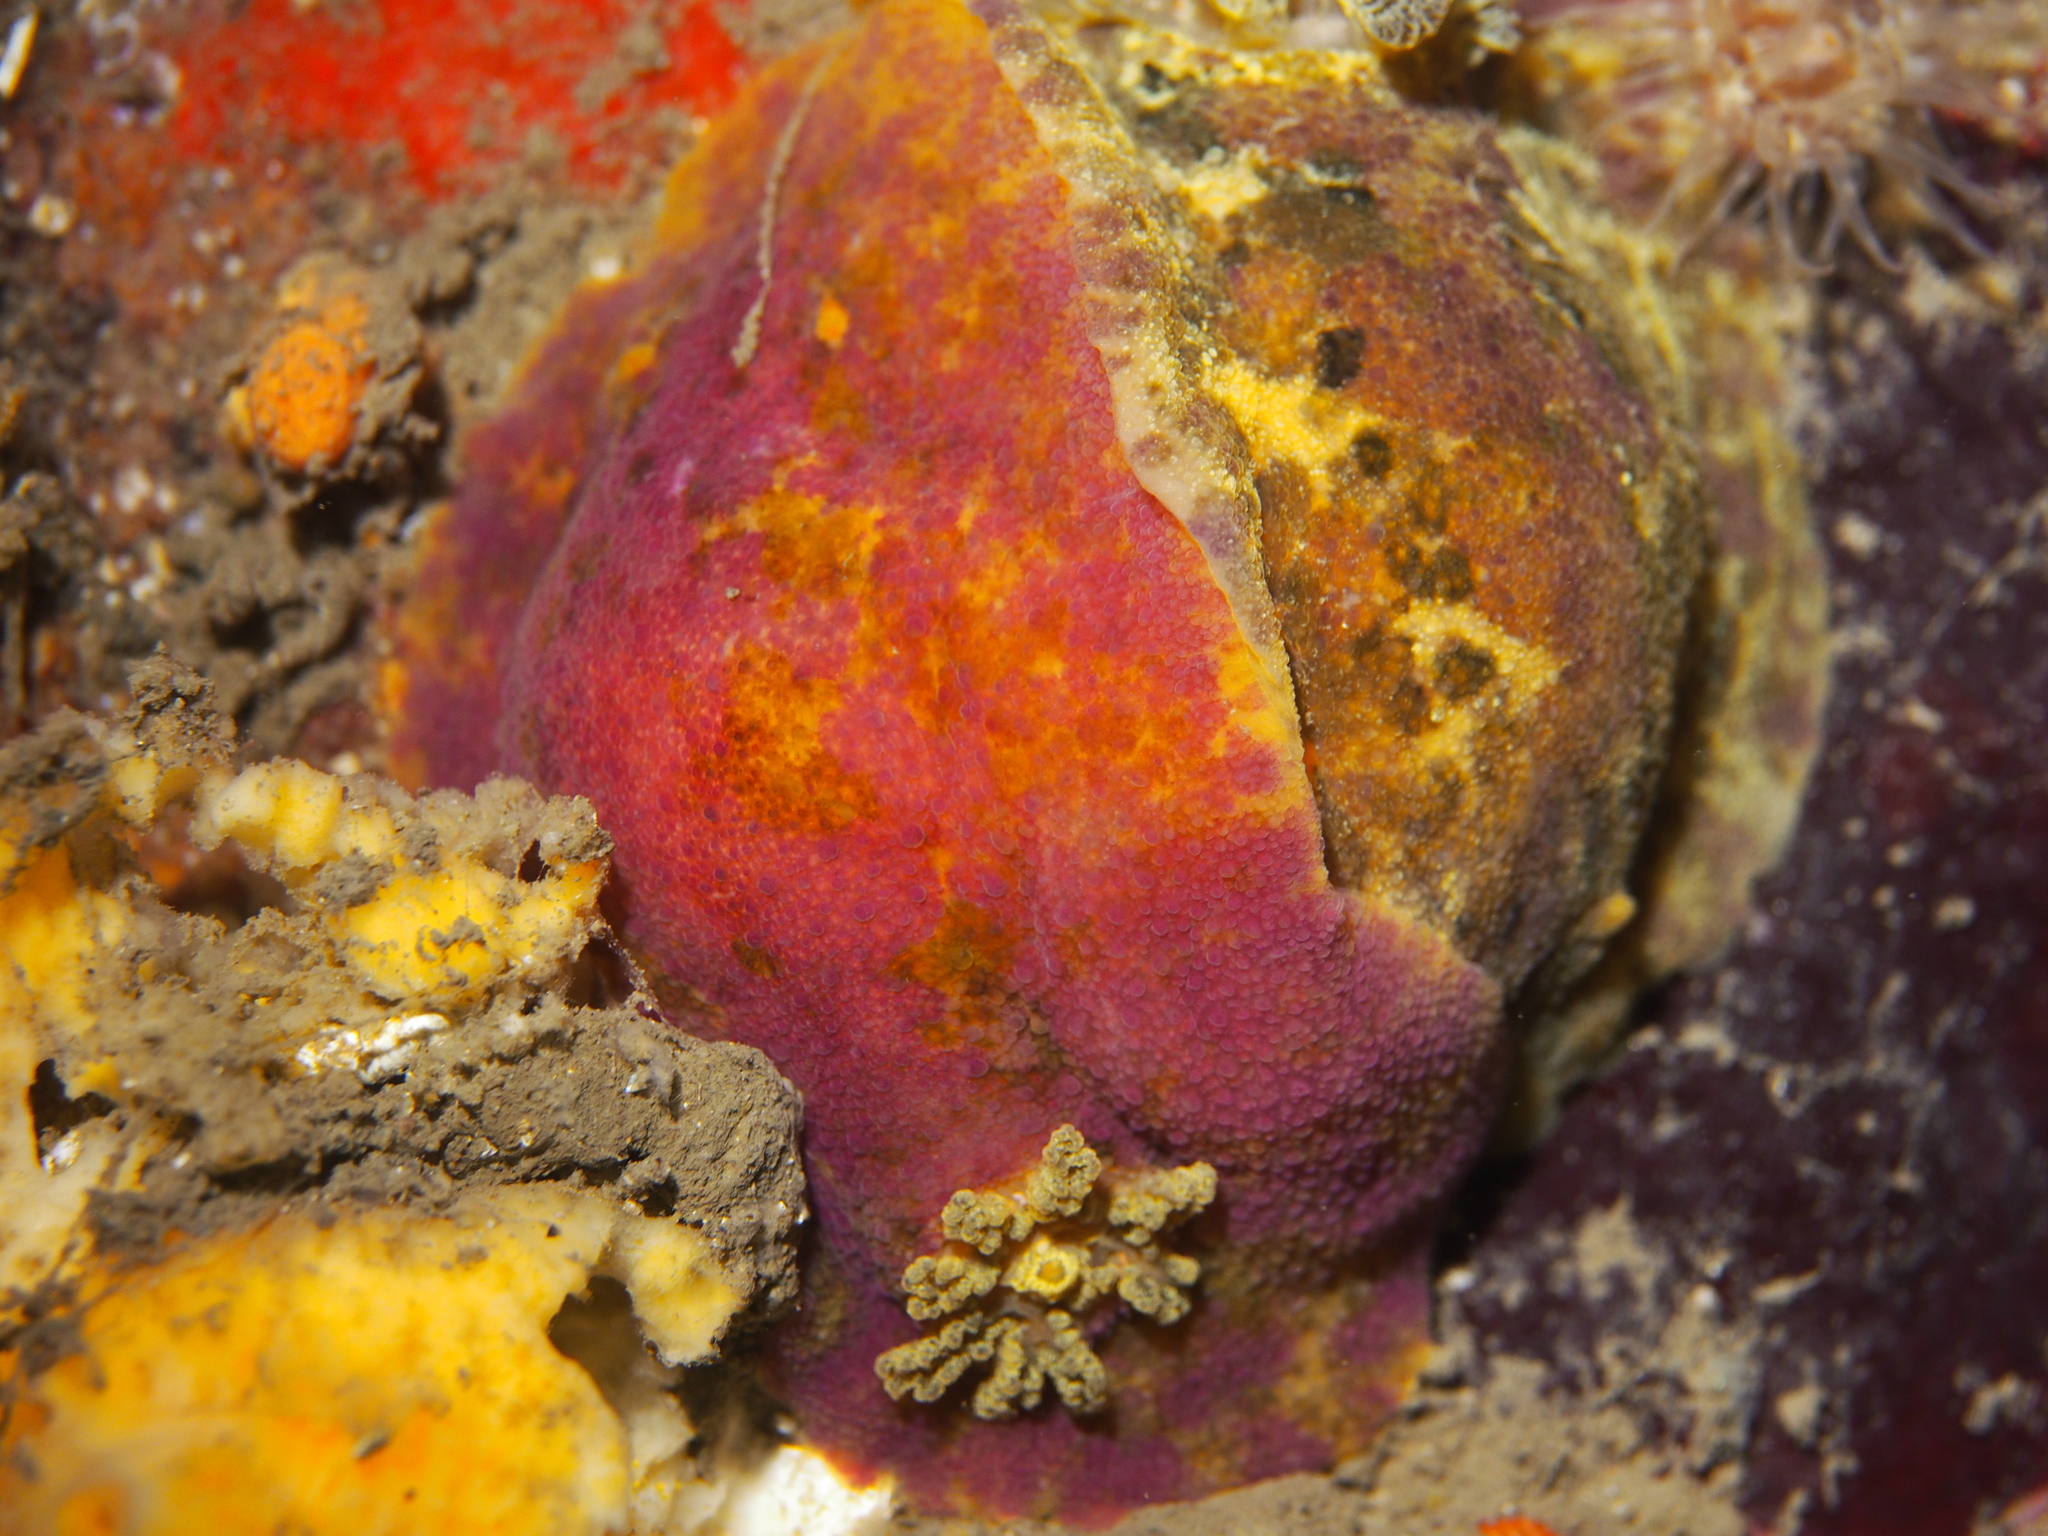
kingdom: Animalia
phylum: Mollusca
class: Gastropoda
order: Nudibranchia
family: Dorididae
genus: Doris
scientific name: Doris pseudoargus
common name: Sea lemon
